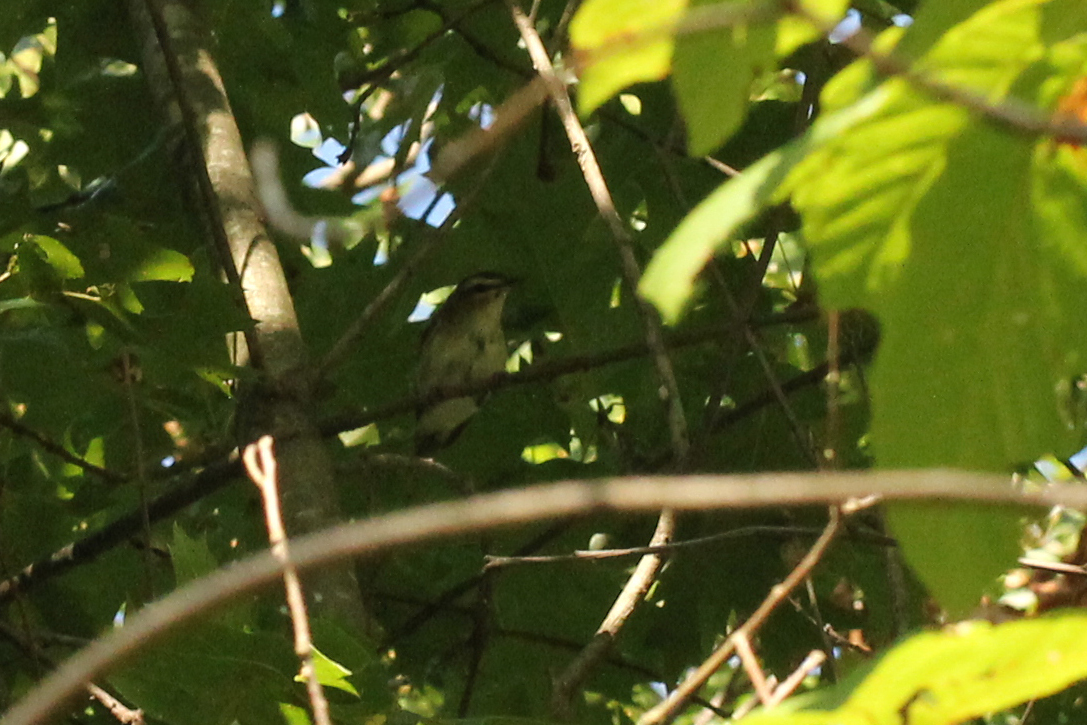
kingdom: Animalia
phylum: Chordata
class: Aves
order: Passeriformes
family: Vireonidae
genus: Vireo
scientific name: Vireo olivaceus
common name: Red-eyed vireo
